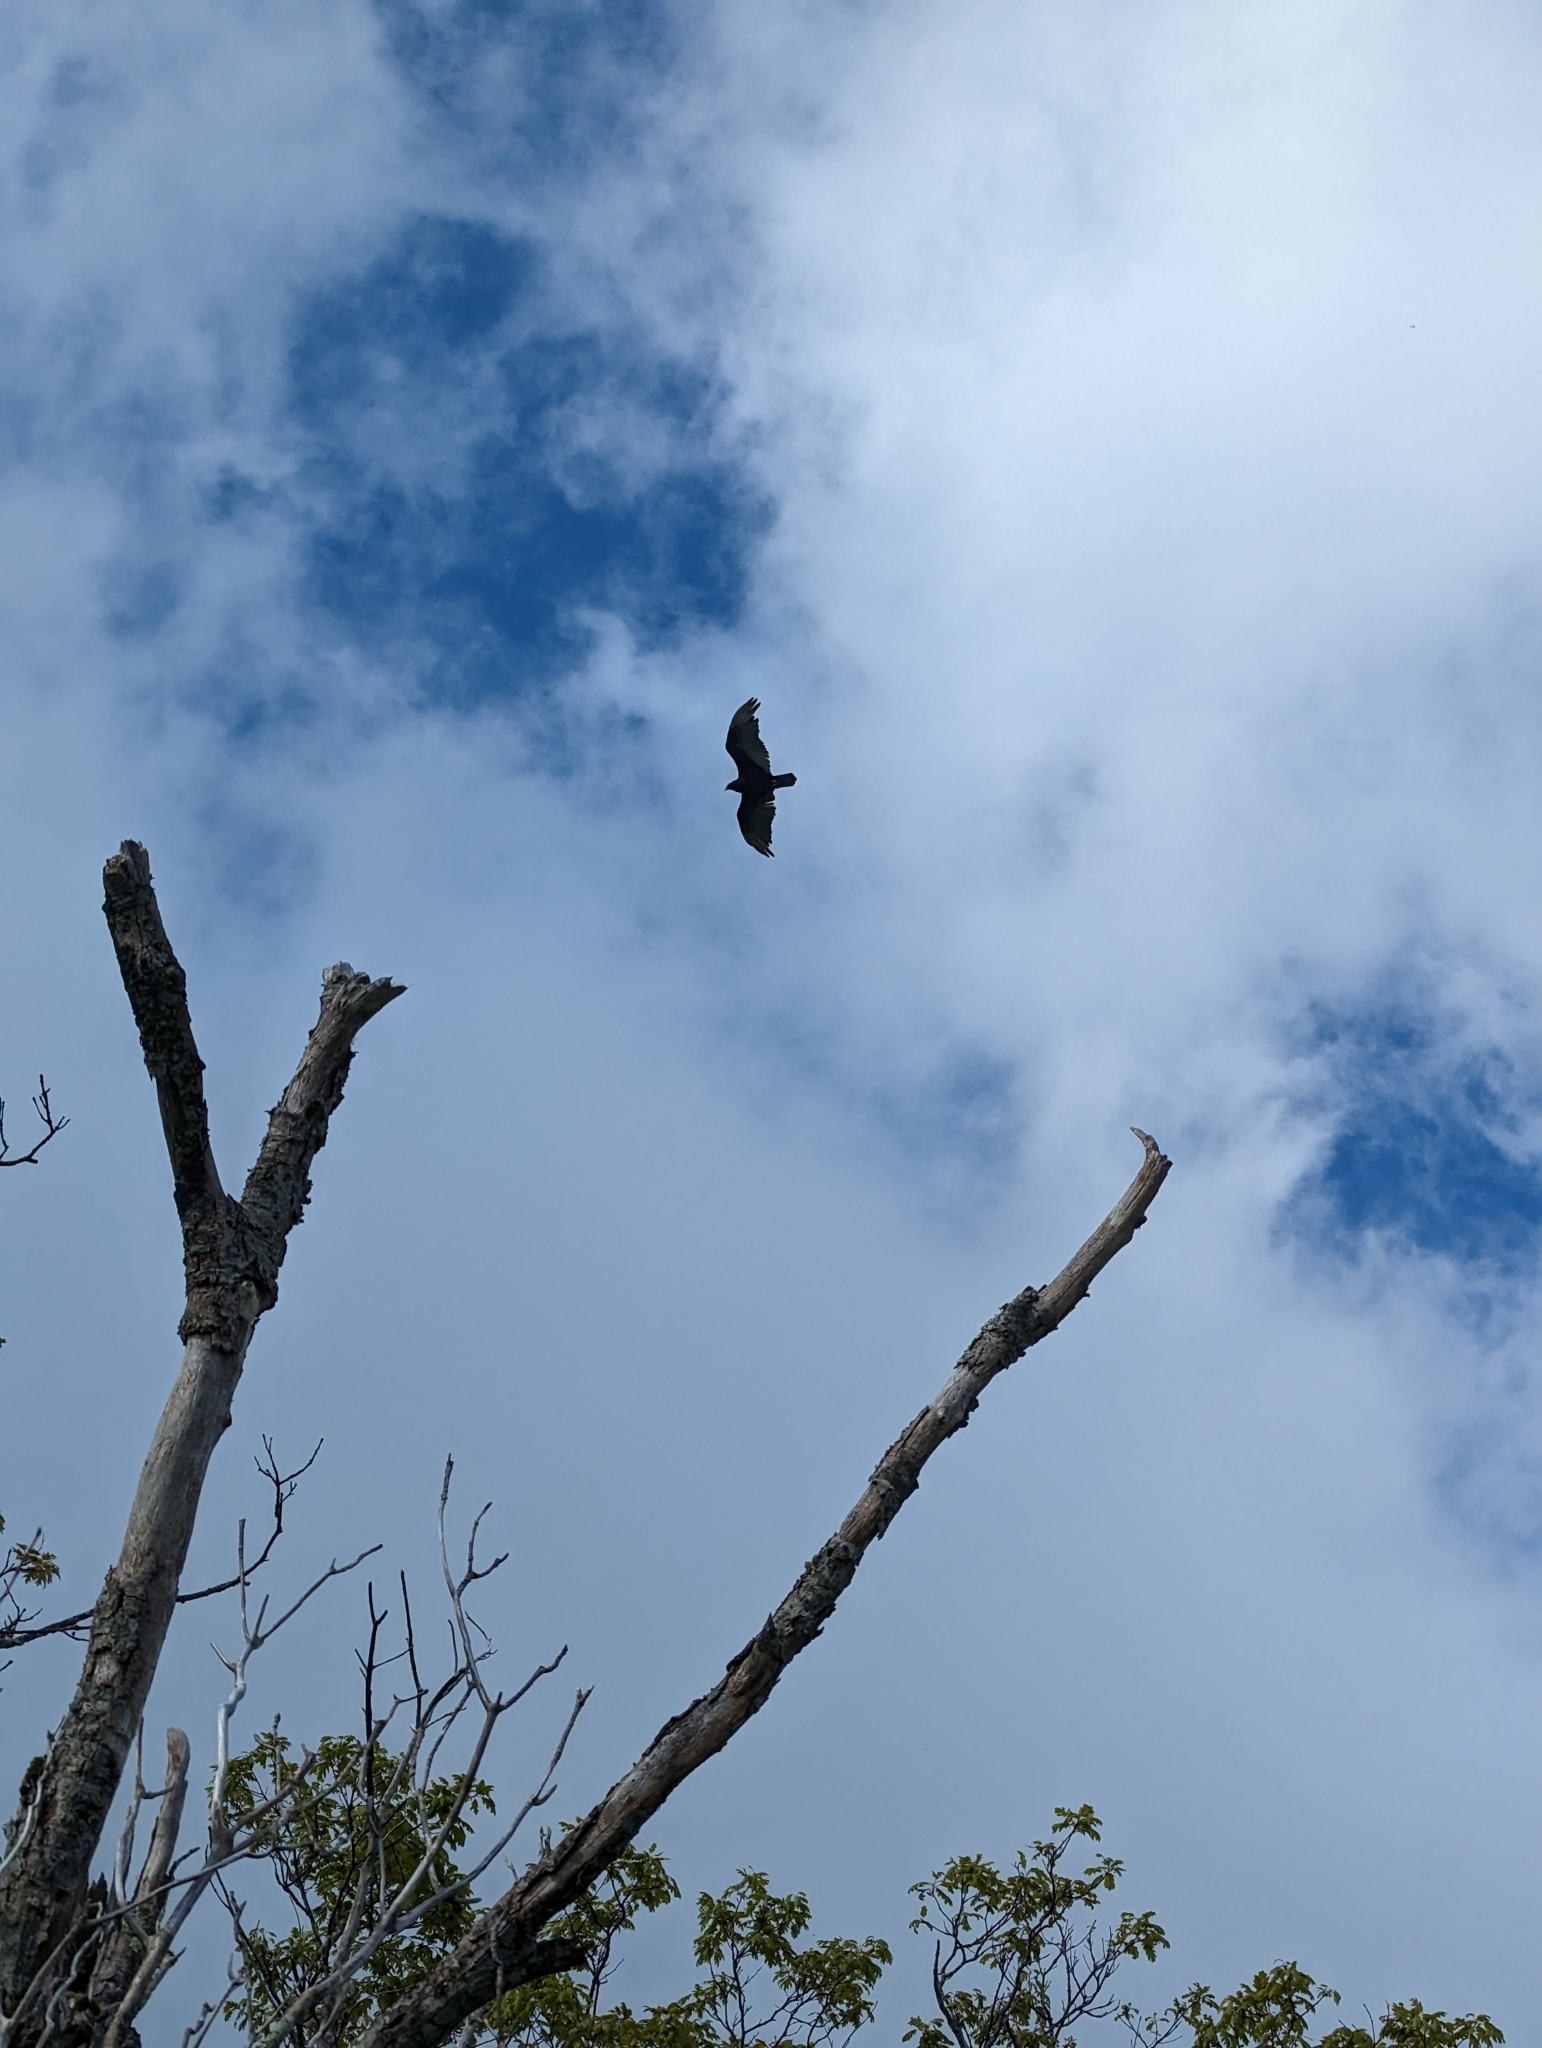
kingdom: Animalia
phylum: Chordata
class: Aves
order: Accipitriformes
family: Cathartidae
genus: Cathartes
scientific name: Cathartes aura
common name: Turkey vulture
